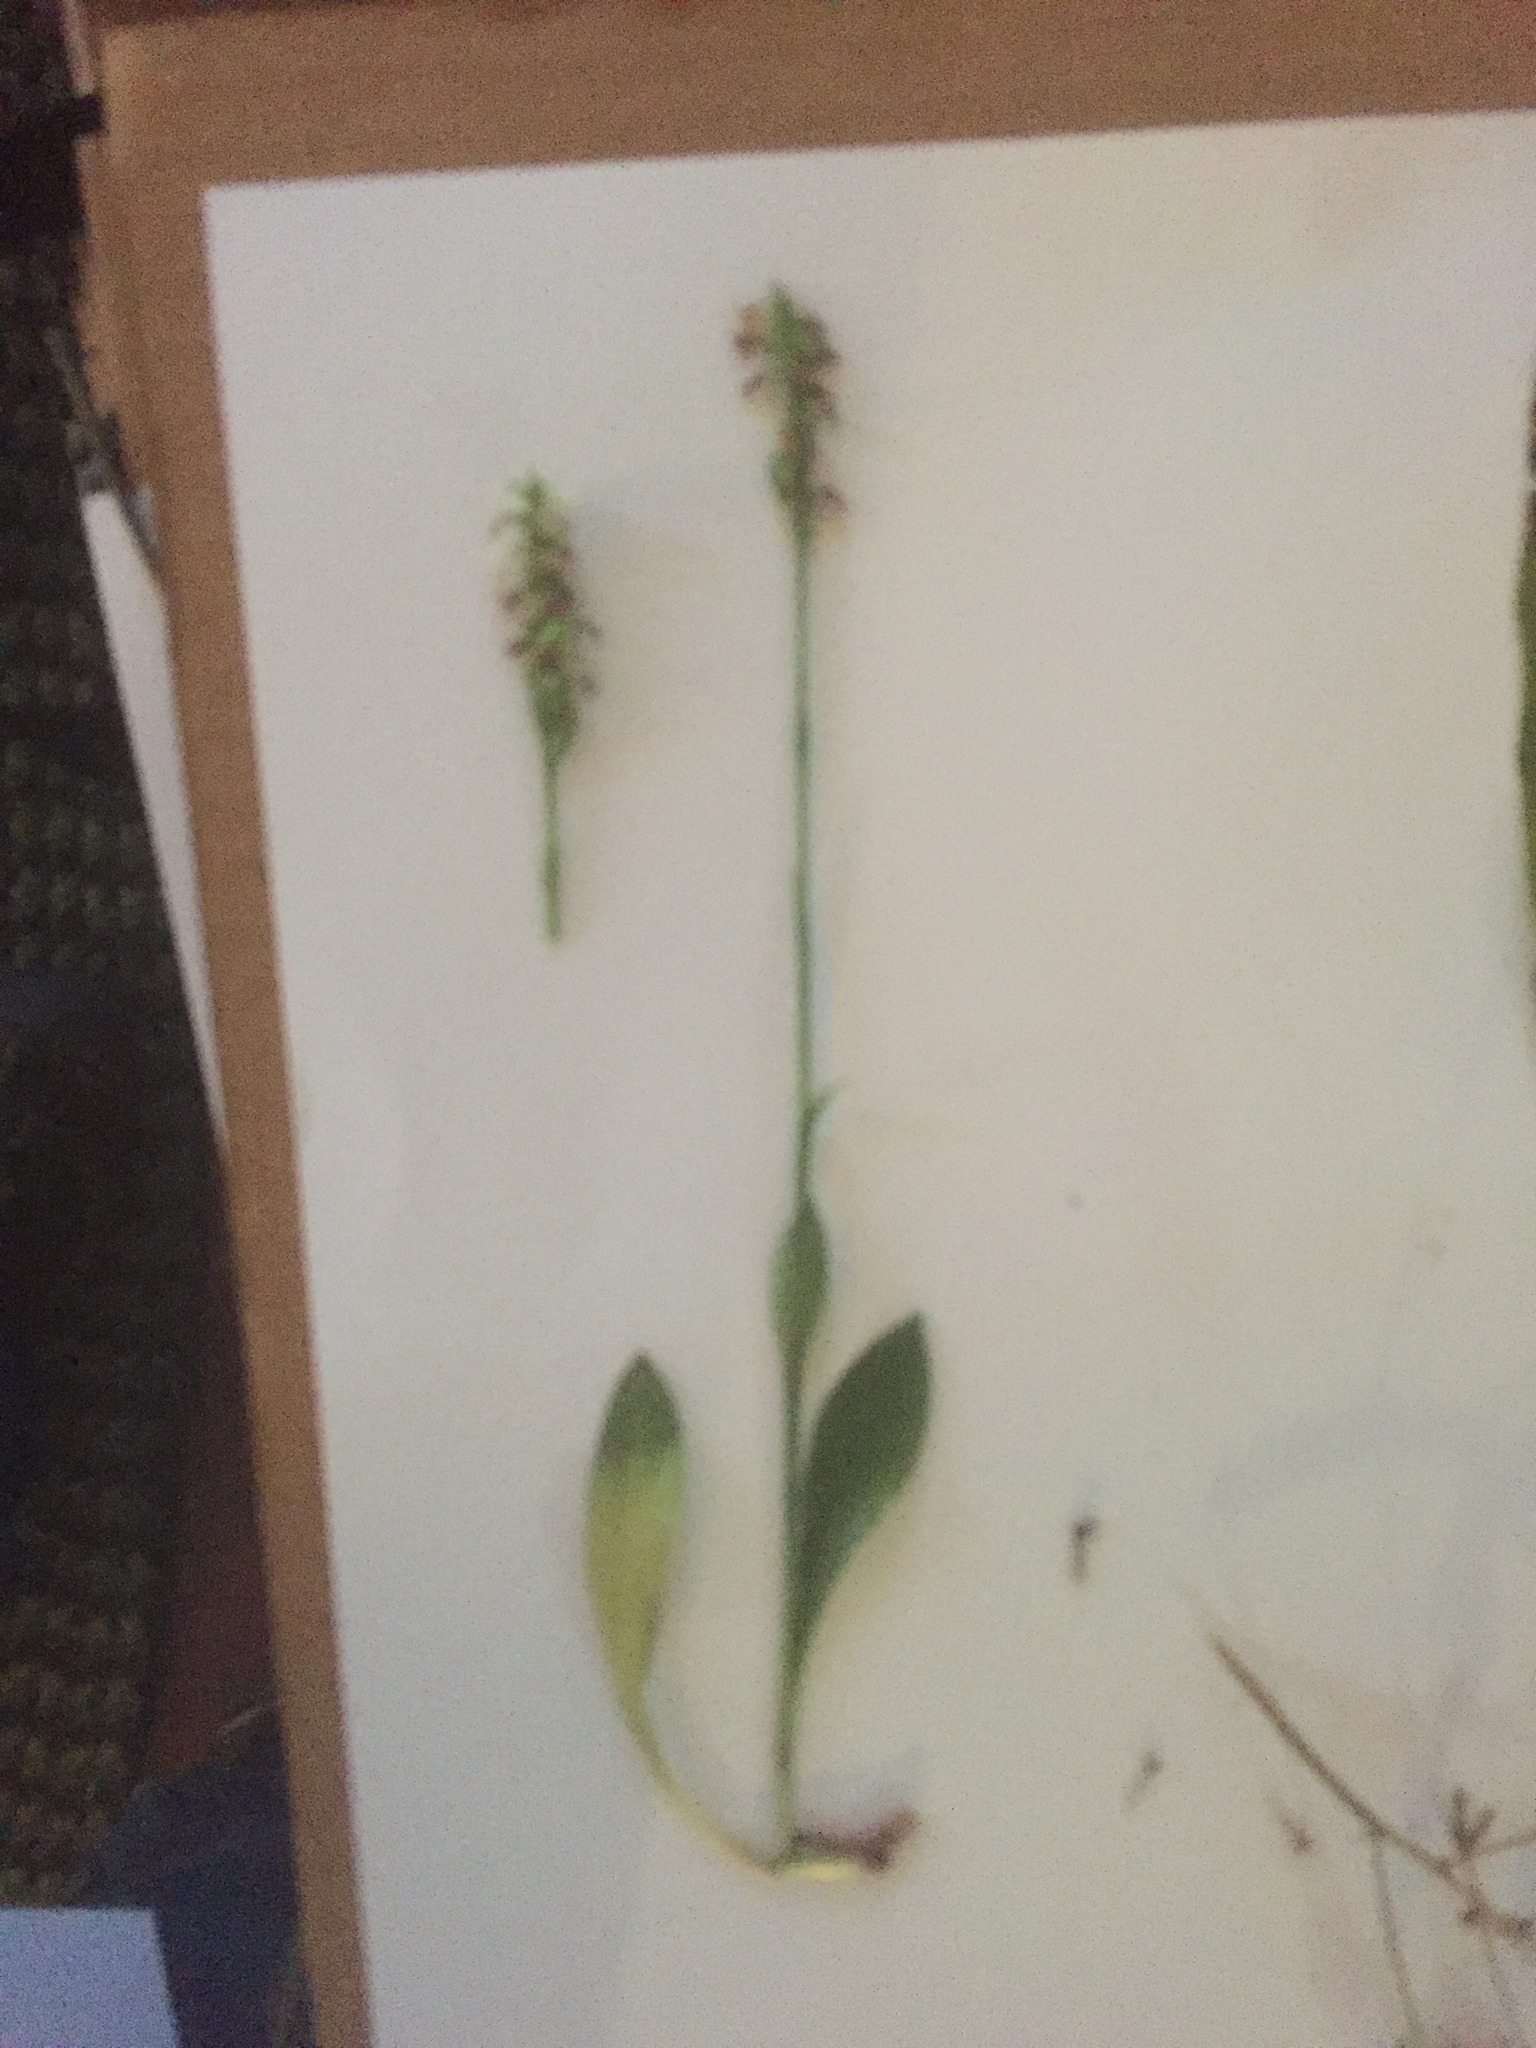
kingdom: Plantae
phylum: Tracheophyta
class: Liliopsida
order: Asparagales
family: Orchidaceae
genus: Spiranthes
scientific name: Spiranthes ovalis
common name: October ladies'-tresses
